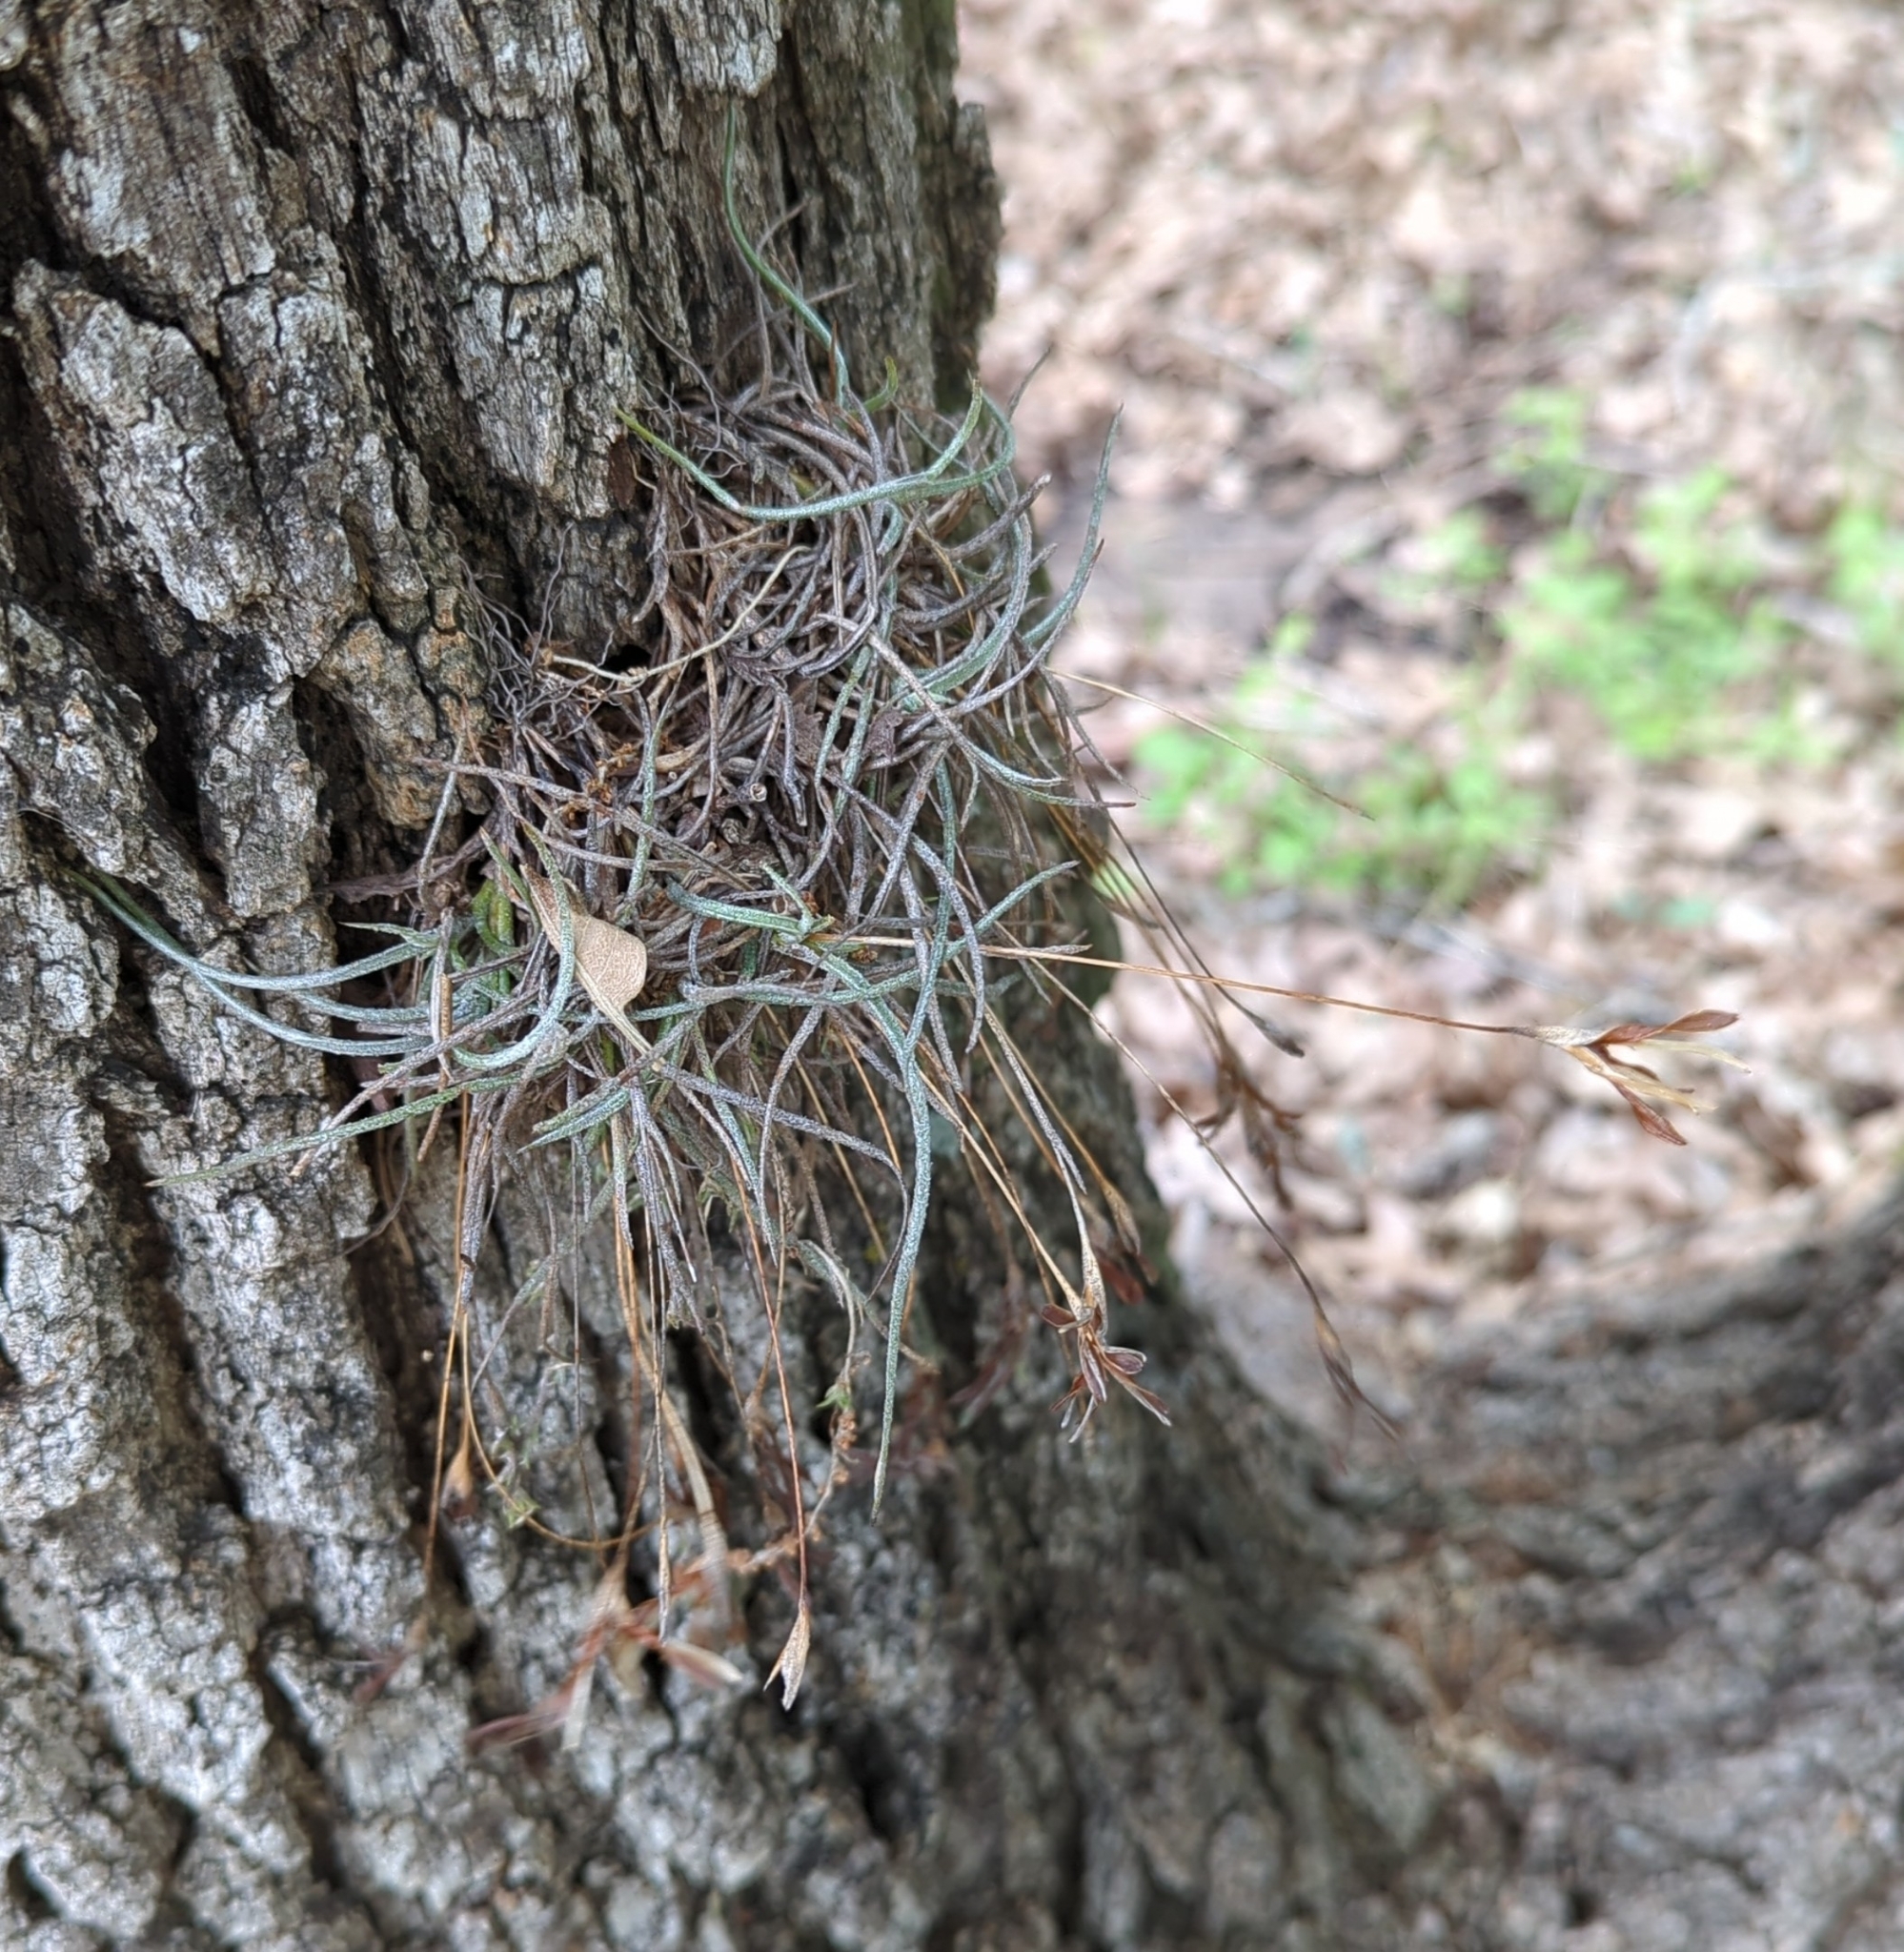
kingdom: Plantae
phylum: Tracheophyta
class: Liliopsida
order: Poales
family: Bromeliaceae
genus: Tillandsia
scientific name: Tillandsia recurvata
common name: Small ballmoss
